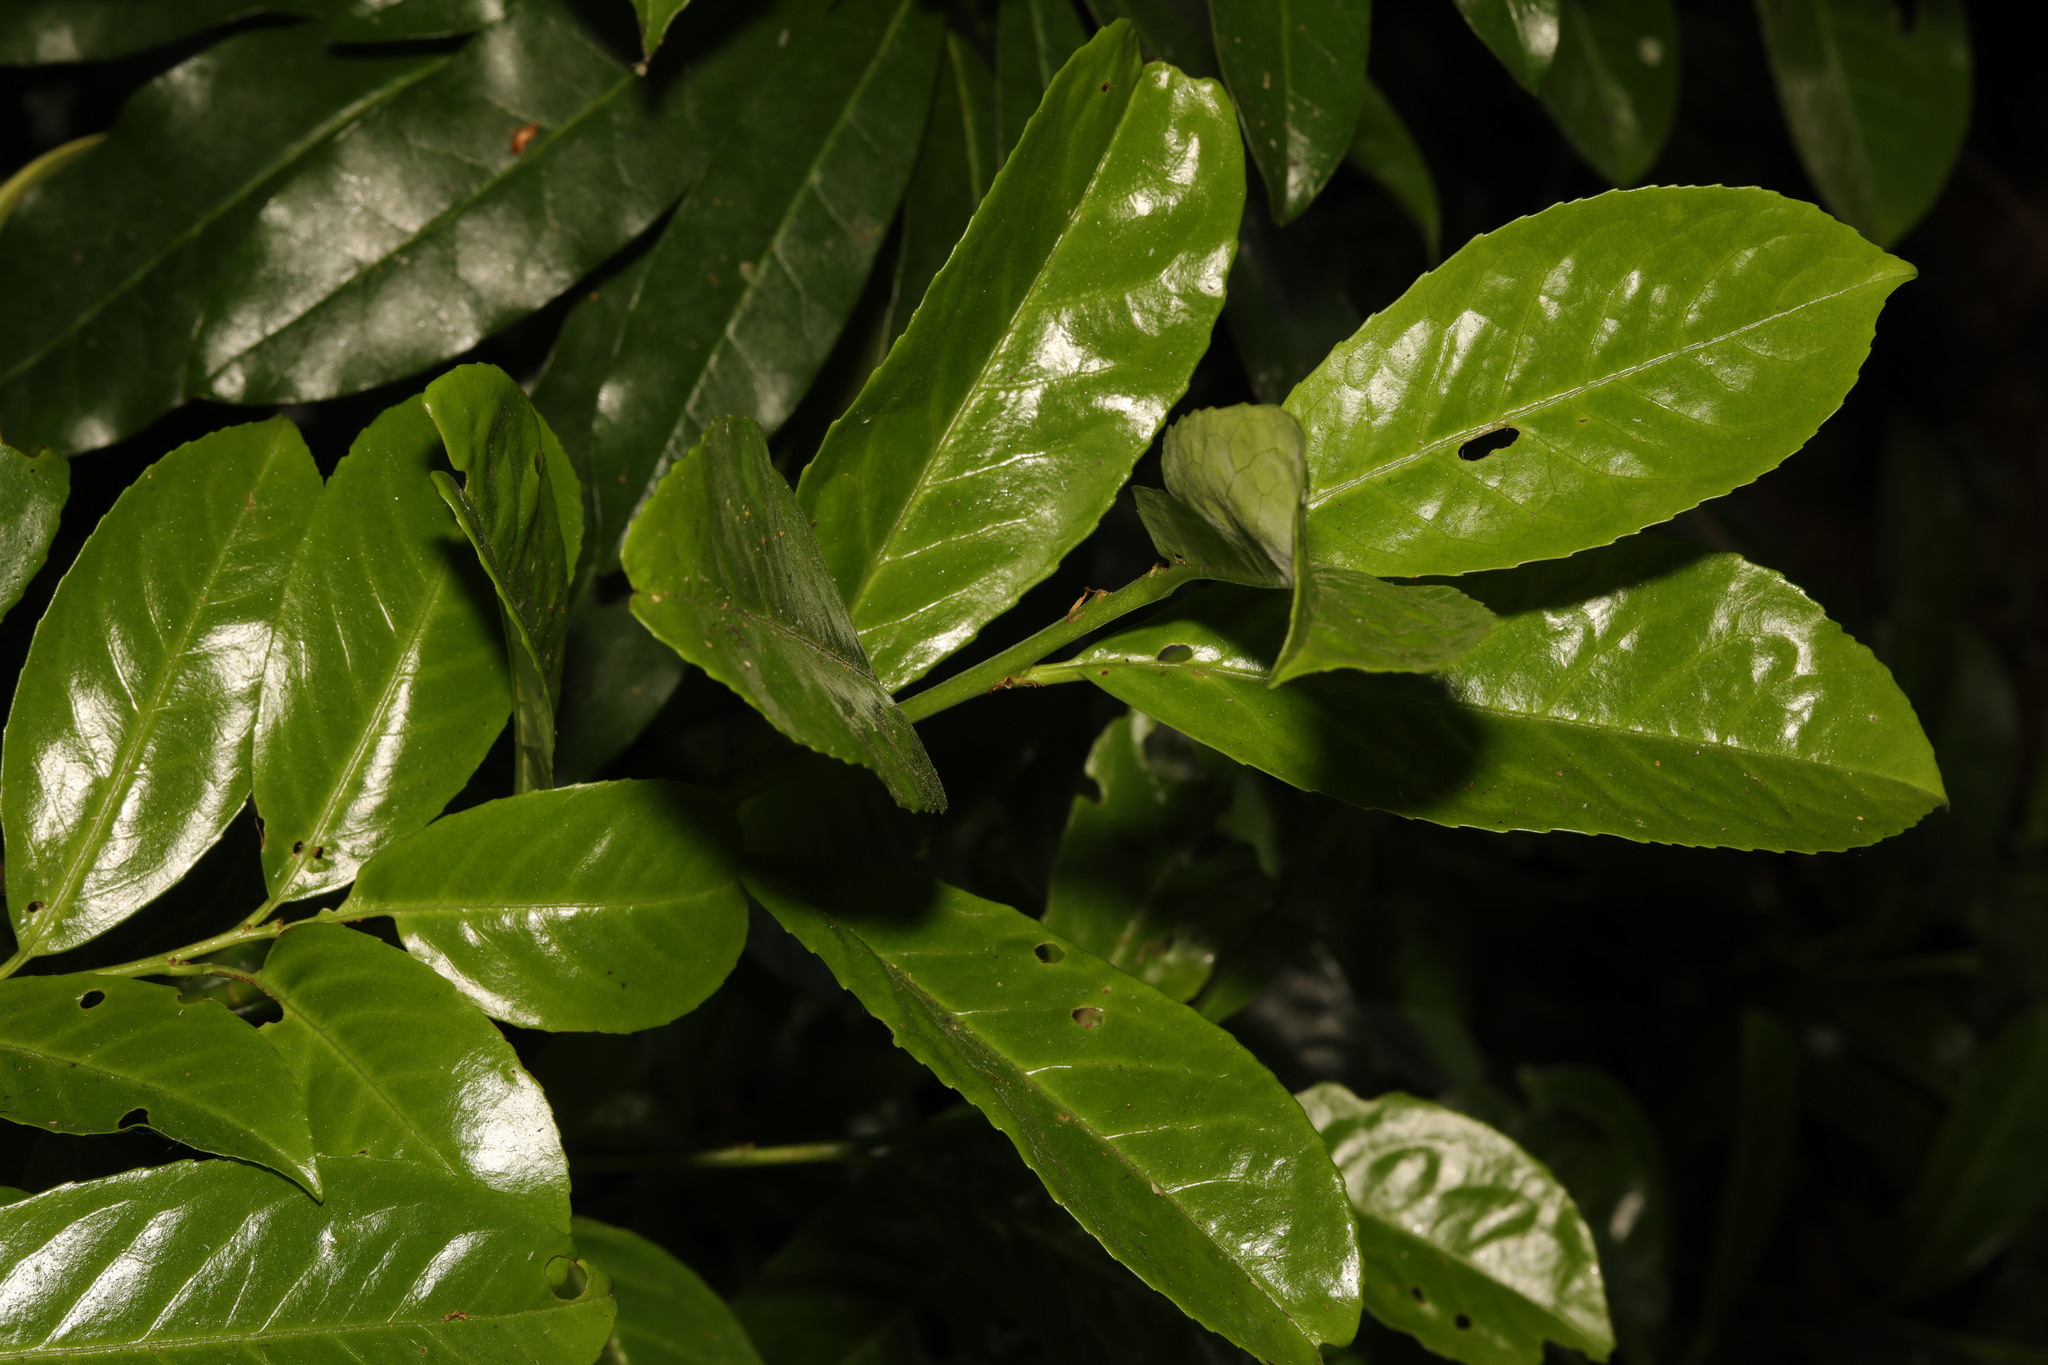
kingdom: Plantae
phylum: Tracheophyta
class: Magnoliopsida
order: Rosales
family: Rosaceae
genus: Prunus
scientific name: Prunus laurocerasus
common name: Cherry laurel
